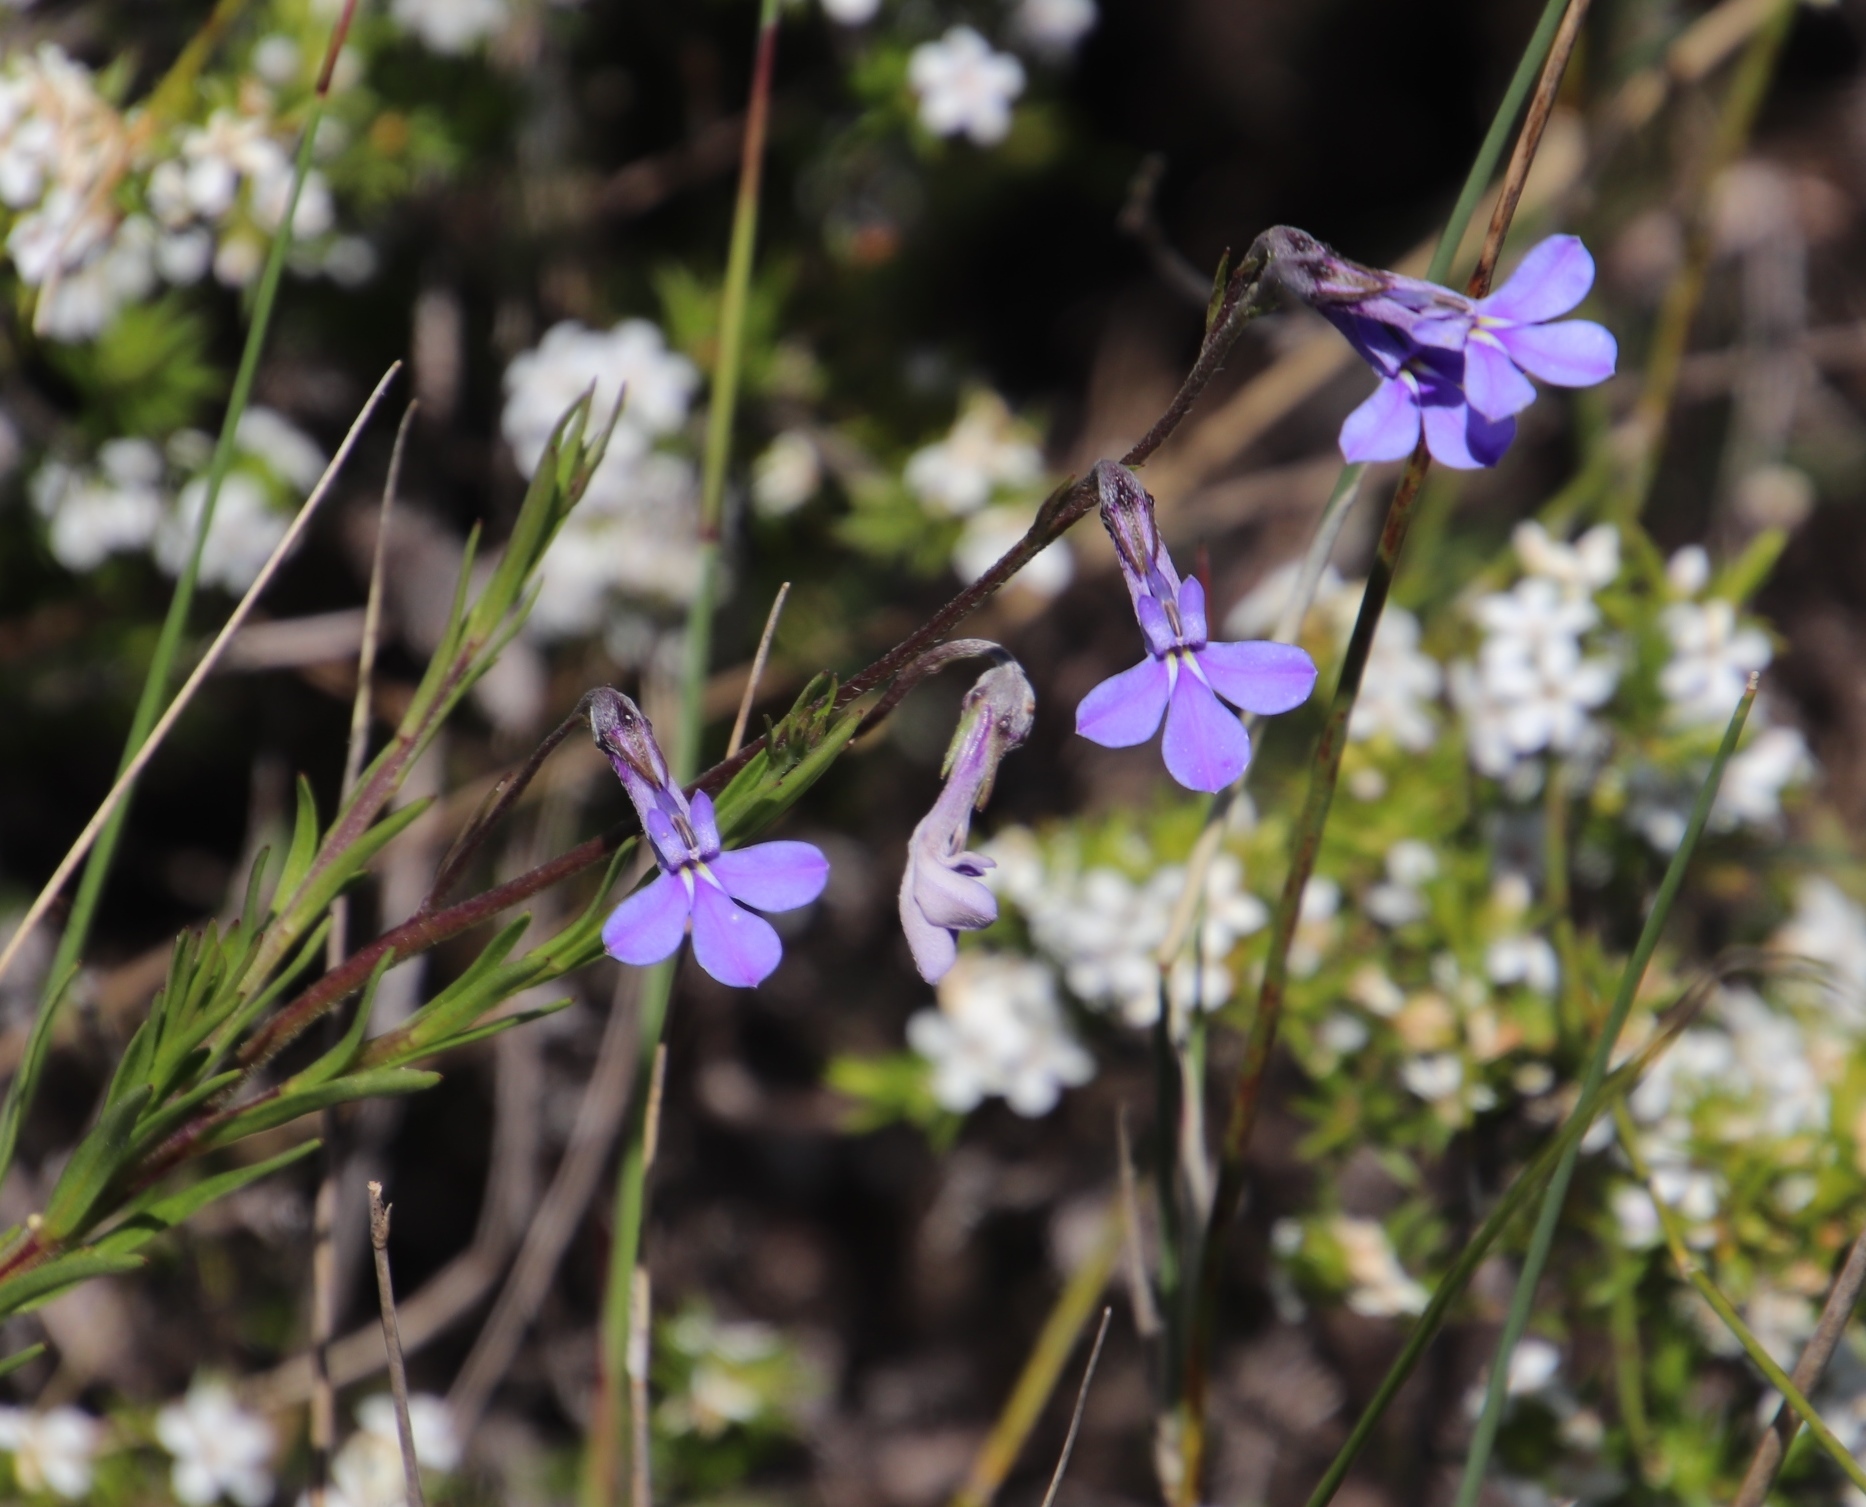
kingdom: Plantae
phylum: Tracheophyta
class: Magnoliopsida
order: Asterales
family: Campanulaceae
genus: Lobelia
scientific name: Lobelia pinifolia
